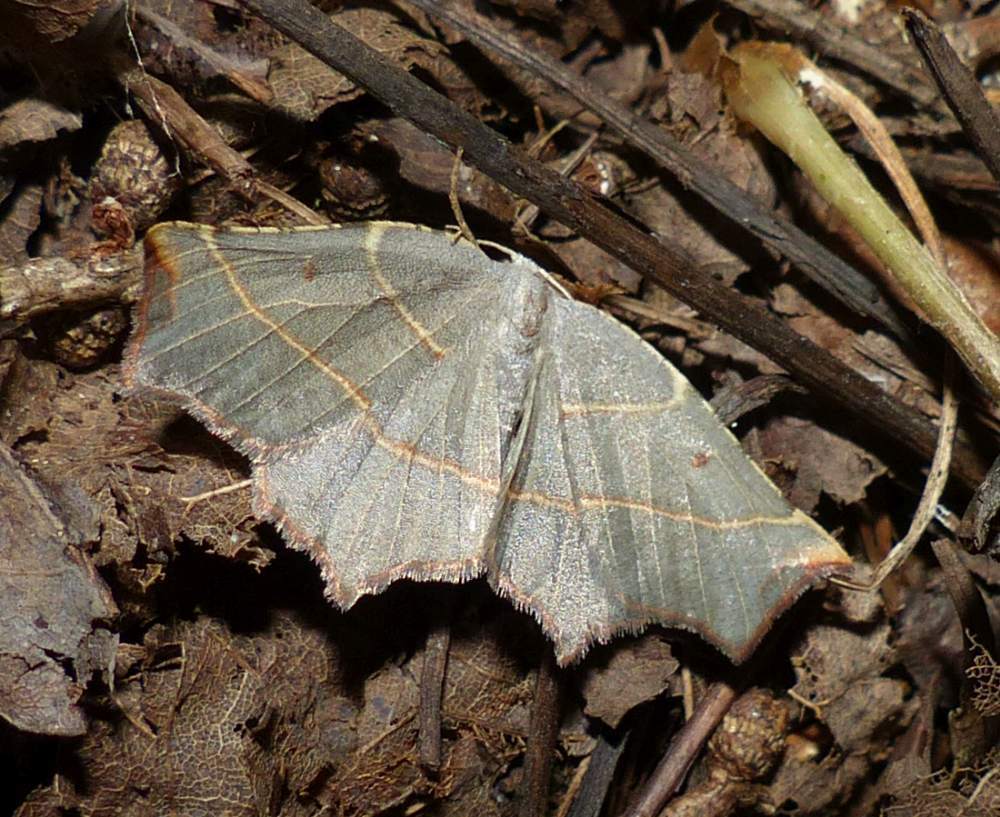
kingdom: Animalia
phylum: Arthropoda
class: Insecta
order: Lepidoptera
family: Geometridae
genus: Metanema
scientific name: Metanema inatomaria
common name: Pale metanema
